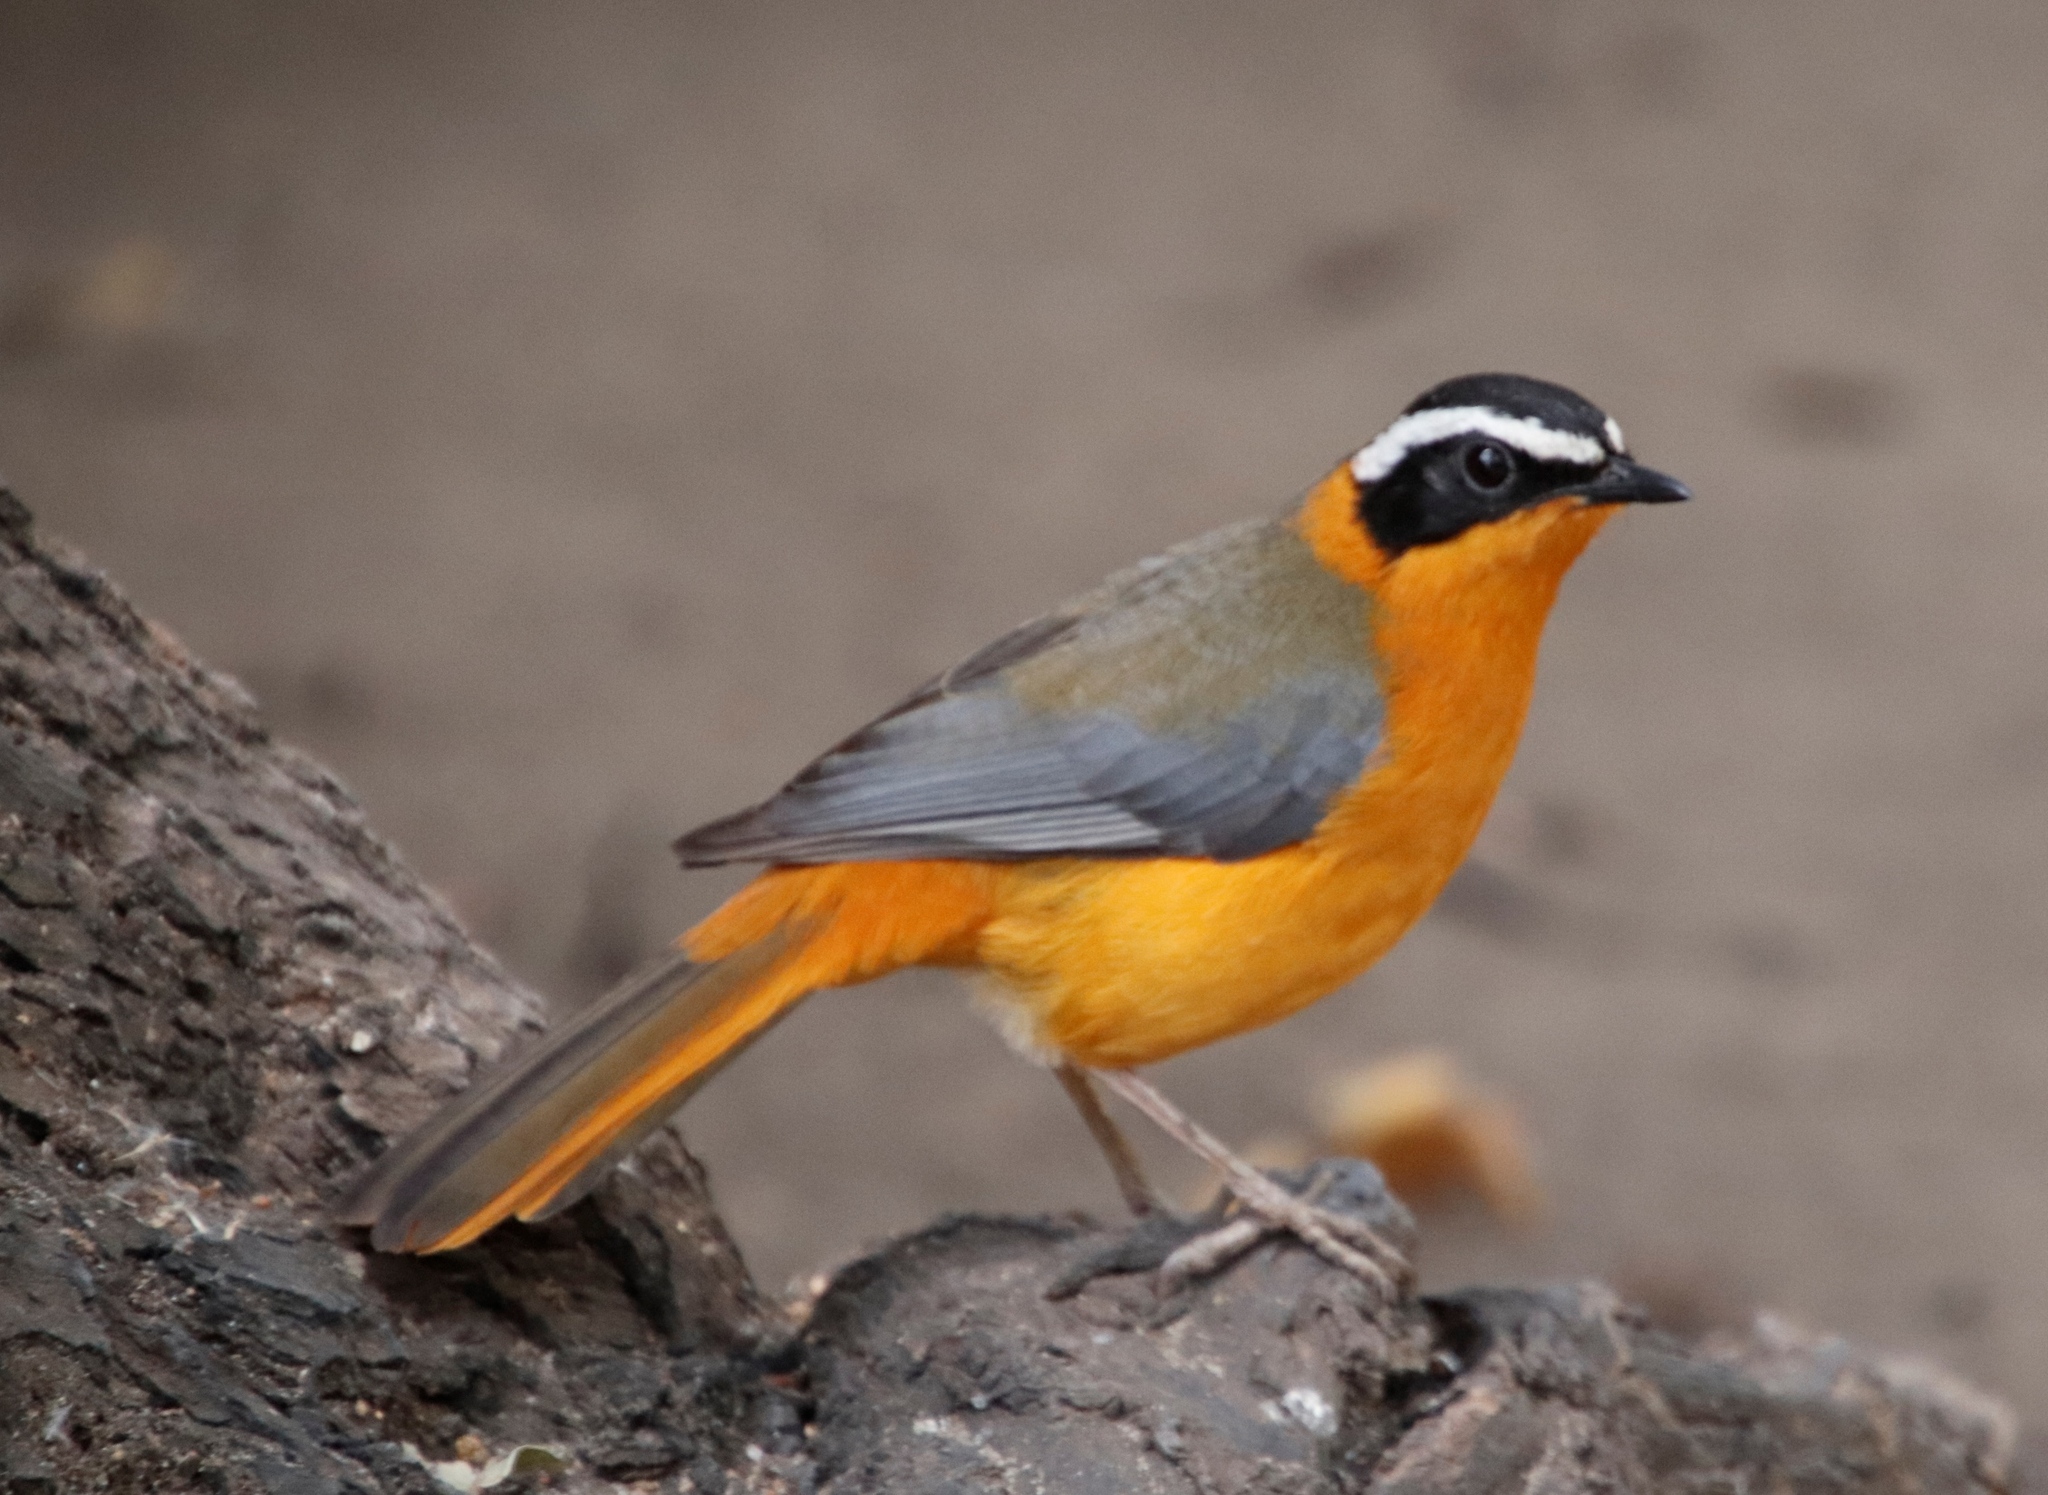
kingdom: Animalia
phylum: Chordata
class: Aves
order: Passeriformes
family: Muscicapidae
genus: Cossypha
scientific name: Cossypha heuglini
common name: White-browed robin-chat
